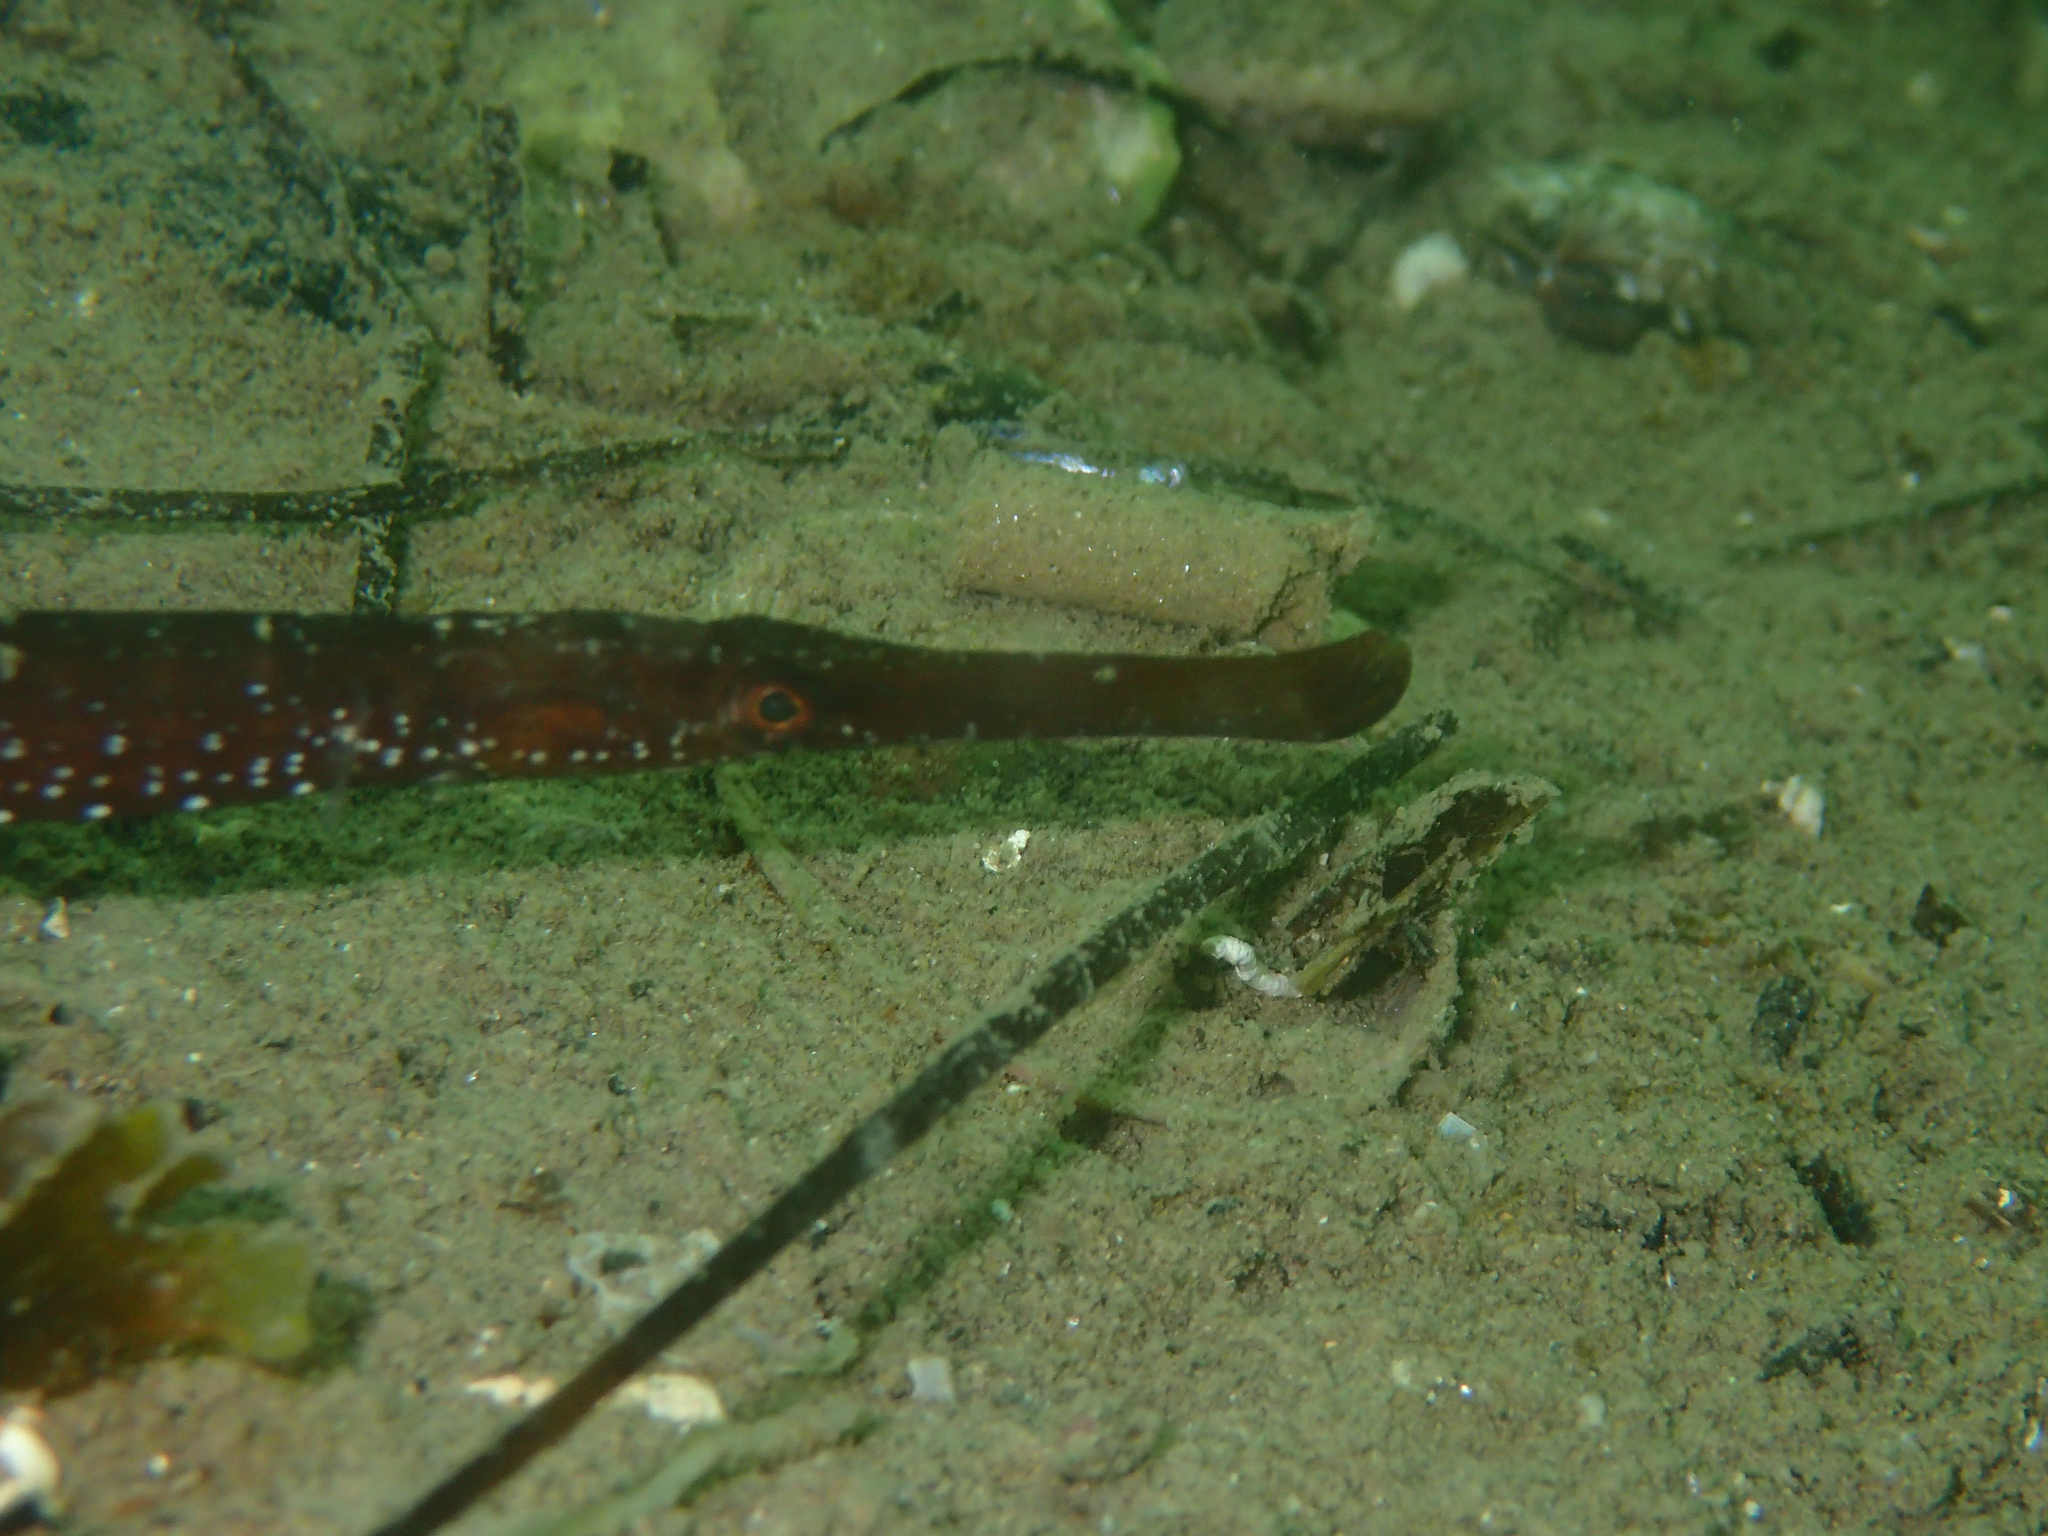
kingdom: Animalia
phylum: Chordata
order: Syngnathiformes
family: Syngnathidae
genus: Syngnathus
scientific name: Syngnathus typhle
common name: Deep-snouted pipefish
